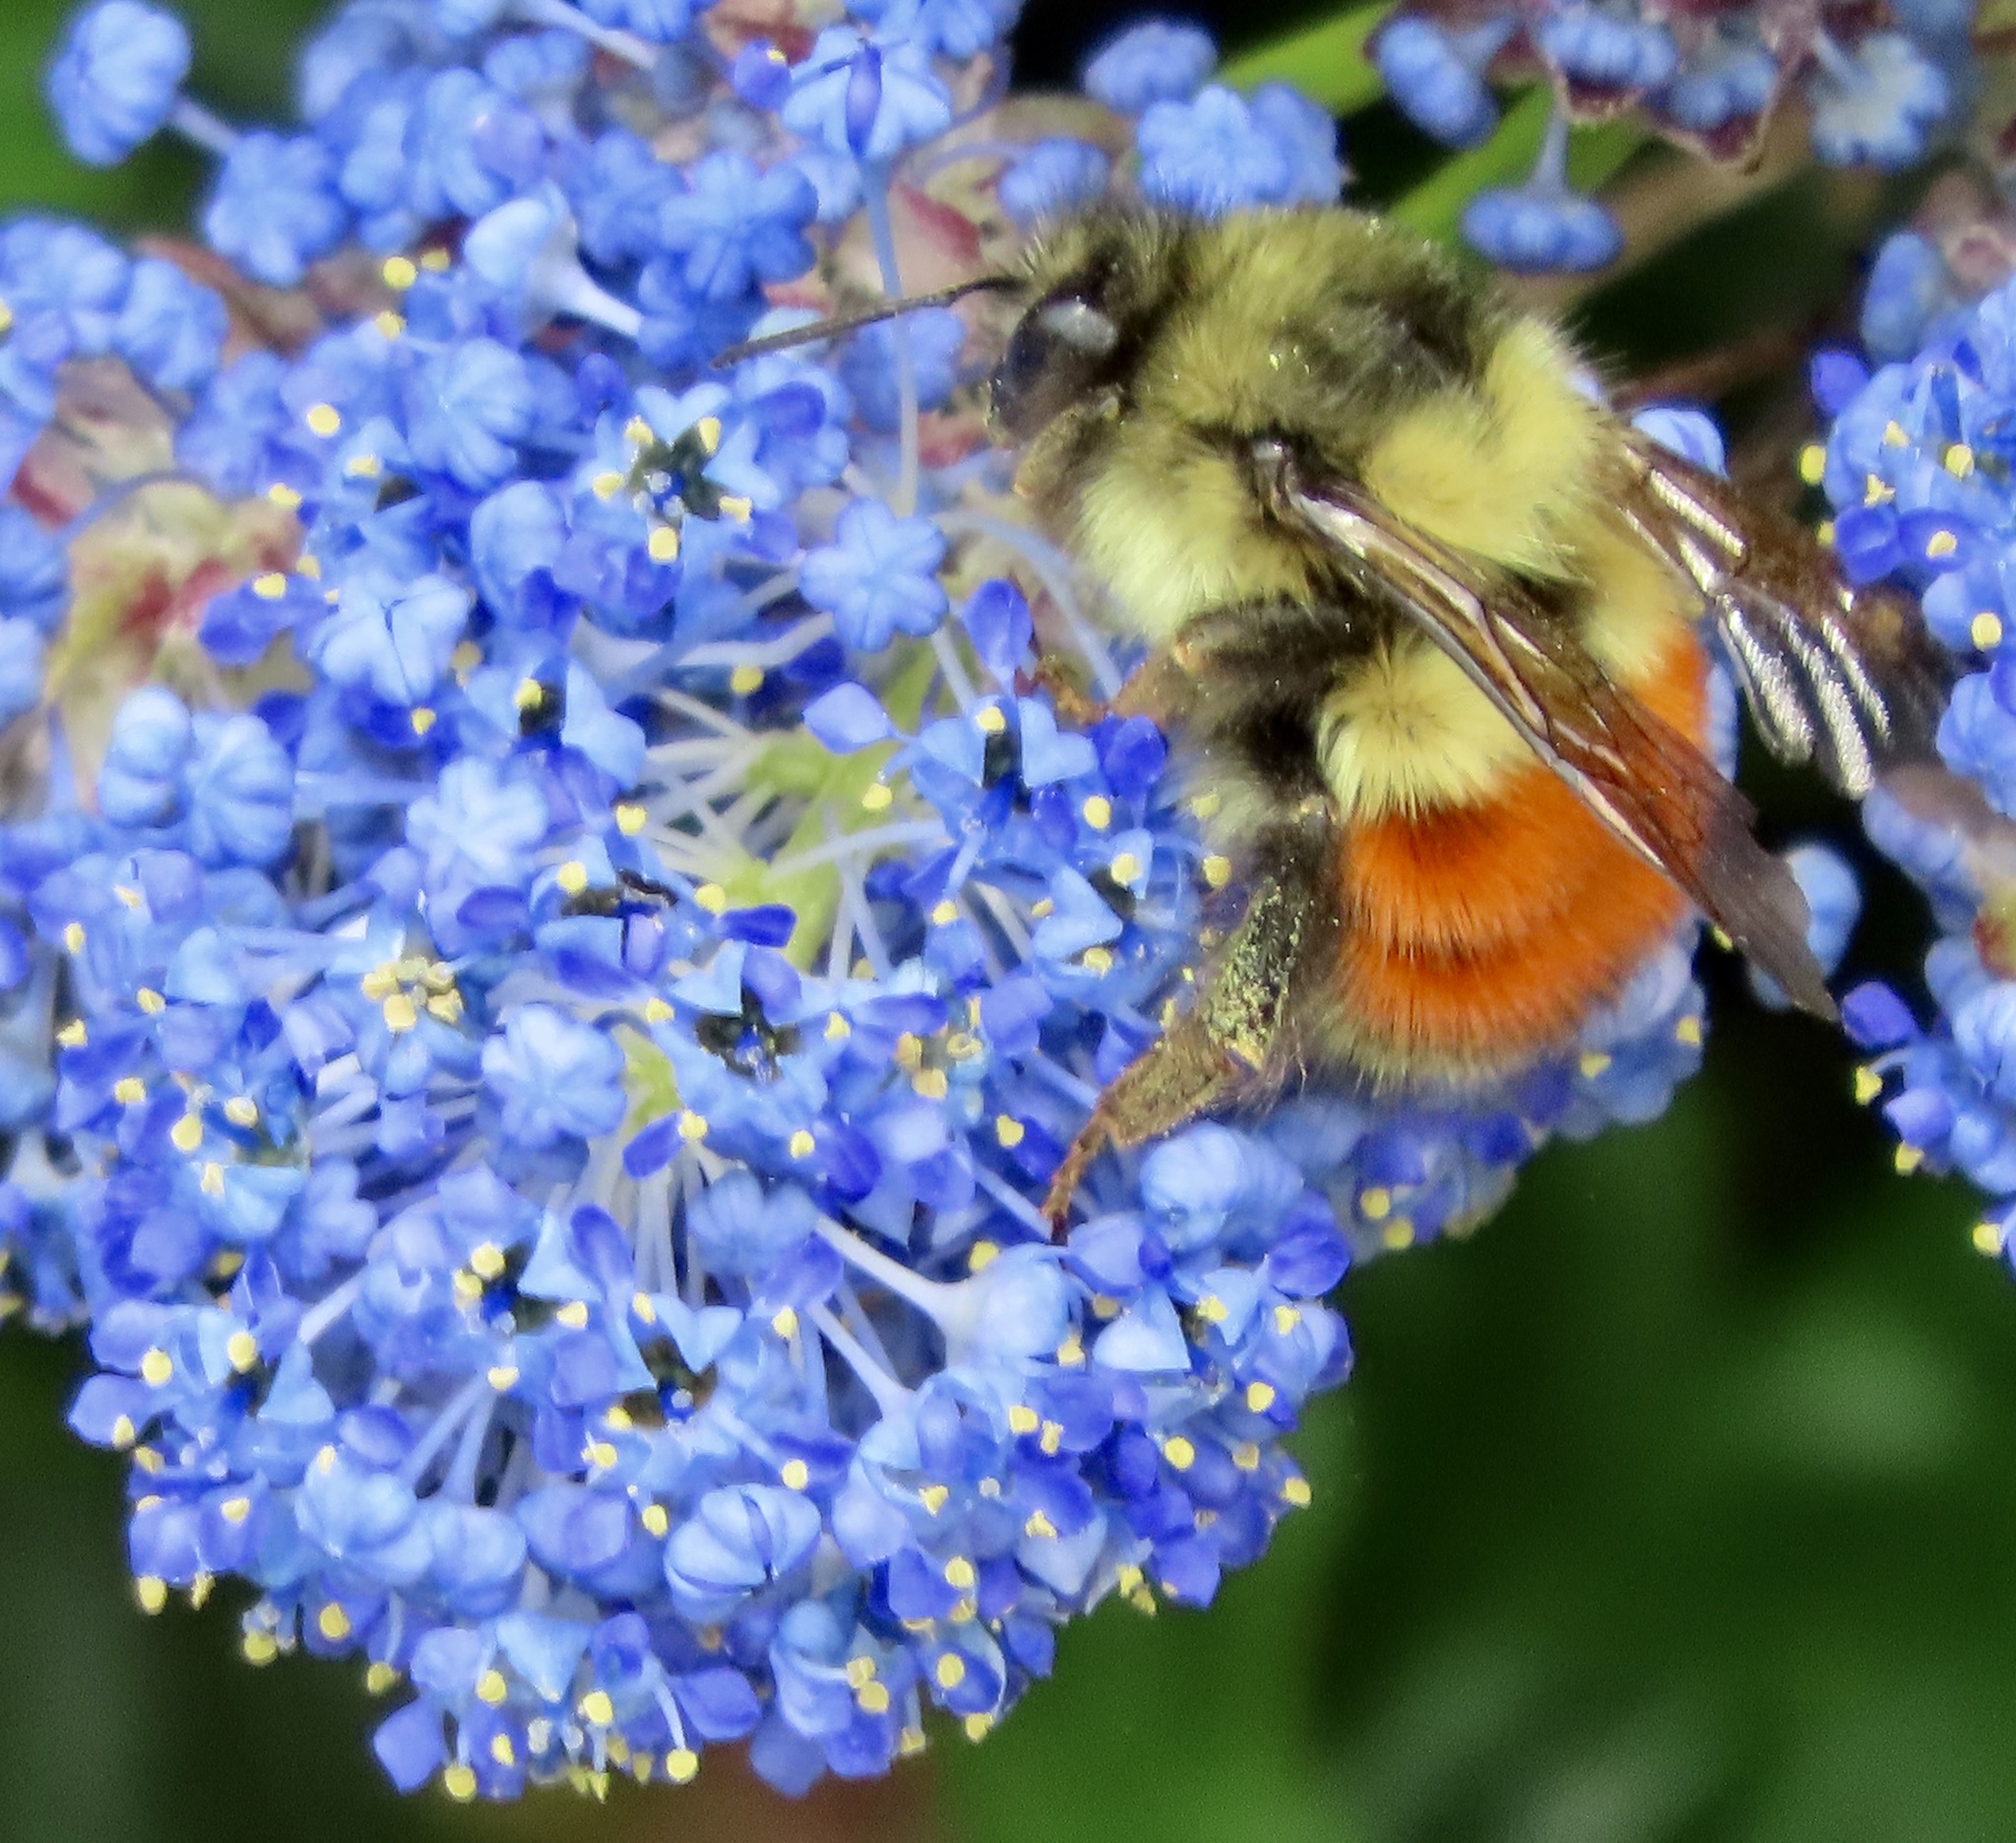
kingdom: Animalia
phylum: Arthropoda
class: Insecta
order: Hymenoptera
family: Apidae
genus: Bombus
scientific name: Bombus melanopygus
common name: Black tail bumble bee
